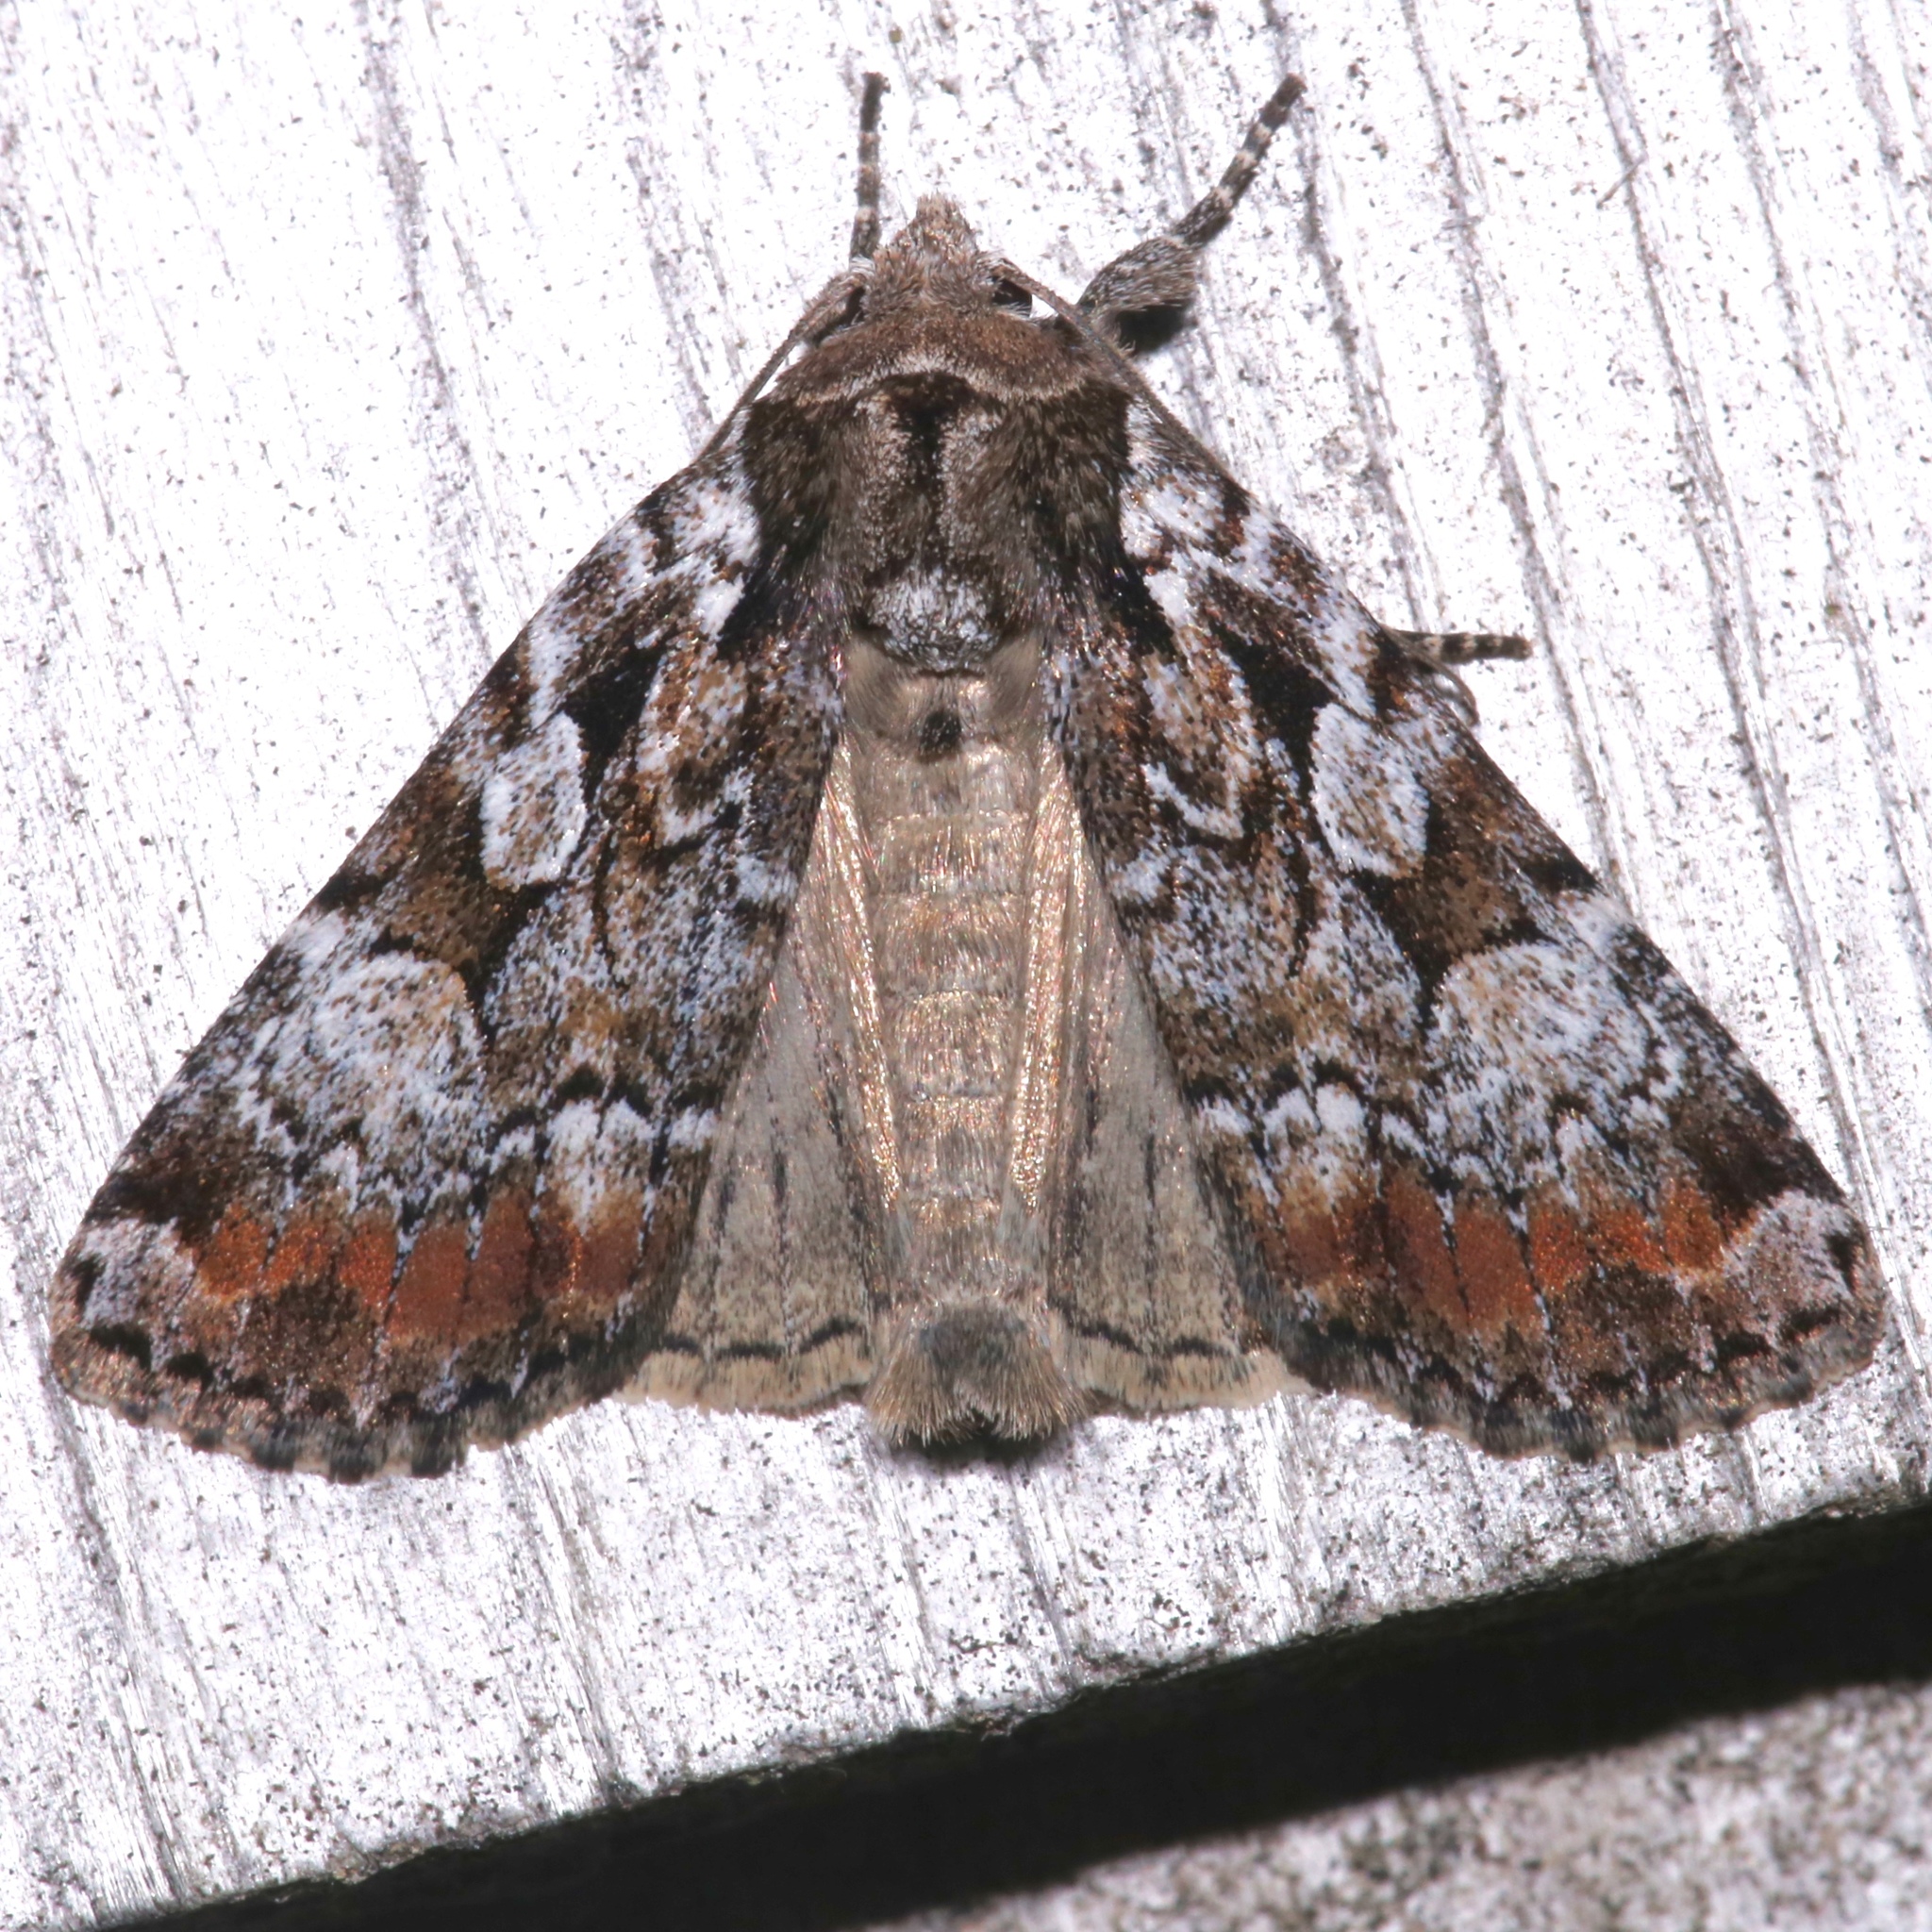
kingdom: Animalia
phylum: Arthropoda
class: Insecta
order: Lepidoptera
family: Noctuidae
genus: Aplectoides
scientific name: Aplectoides condita
